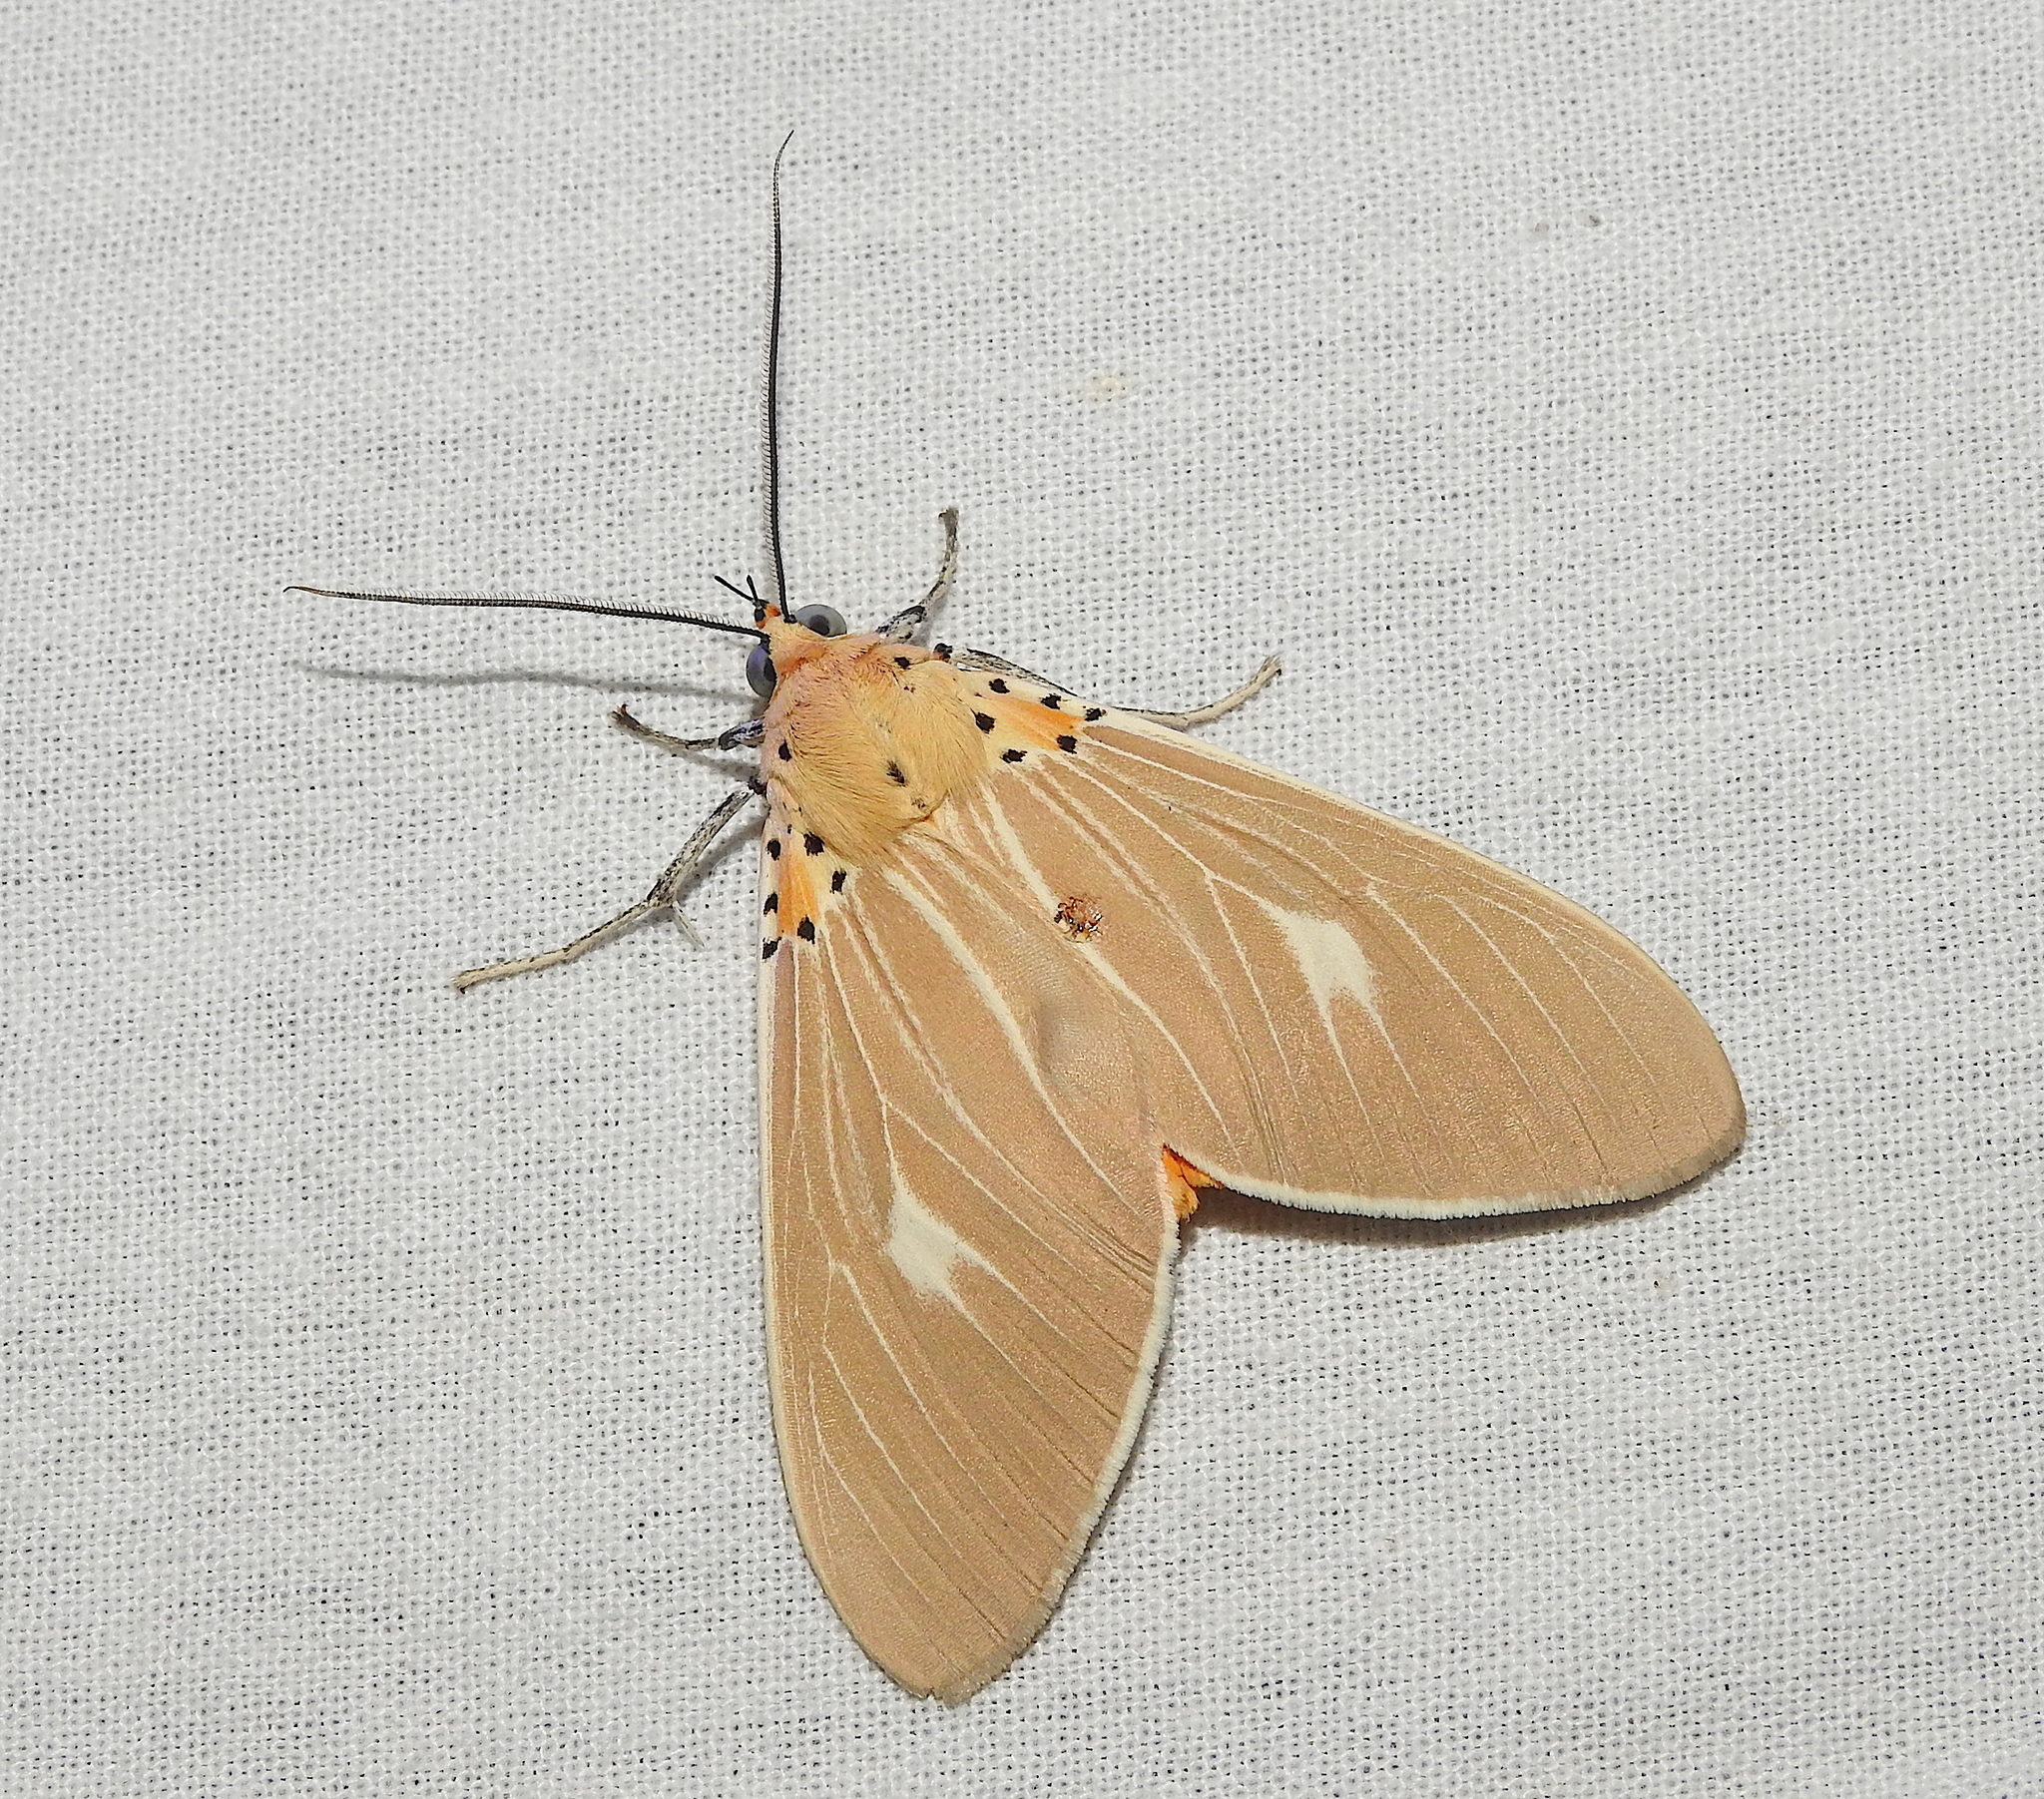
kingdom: Animalia
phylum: Arthropoda
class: Insecta
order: Lepidoptera
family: Erebidae
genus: Asota
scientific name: Asota producta
